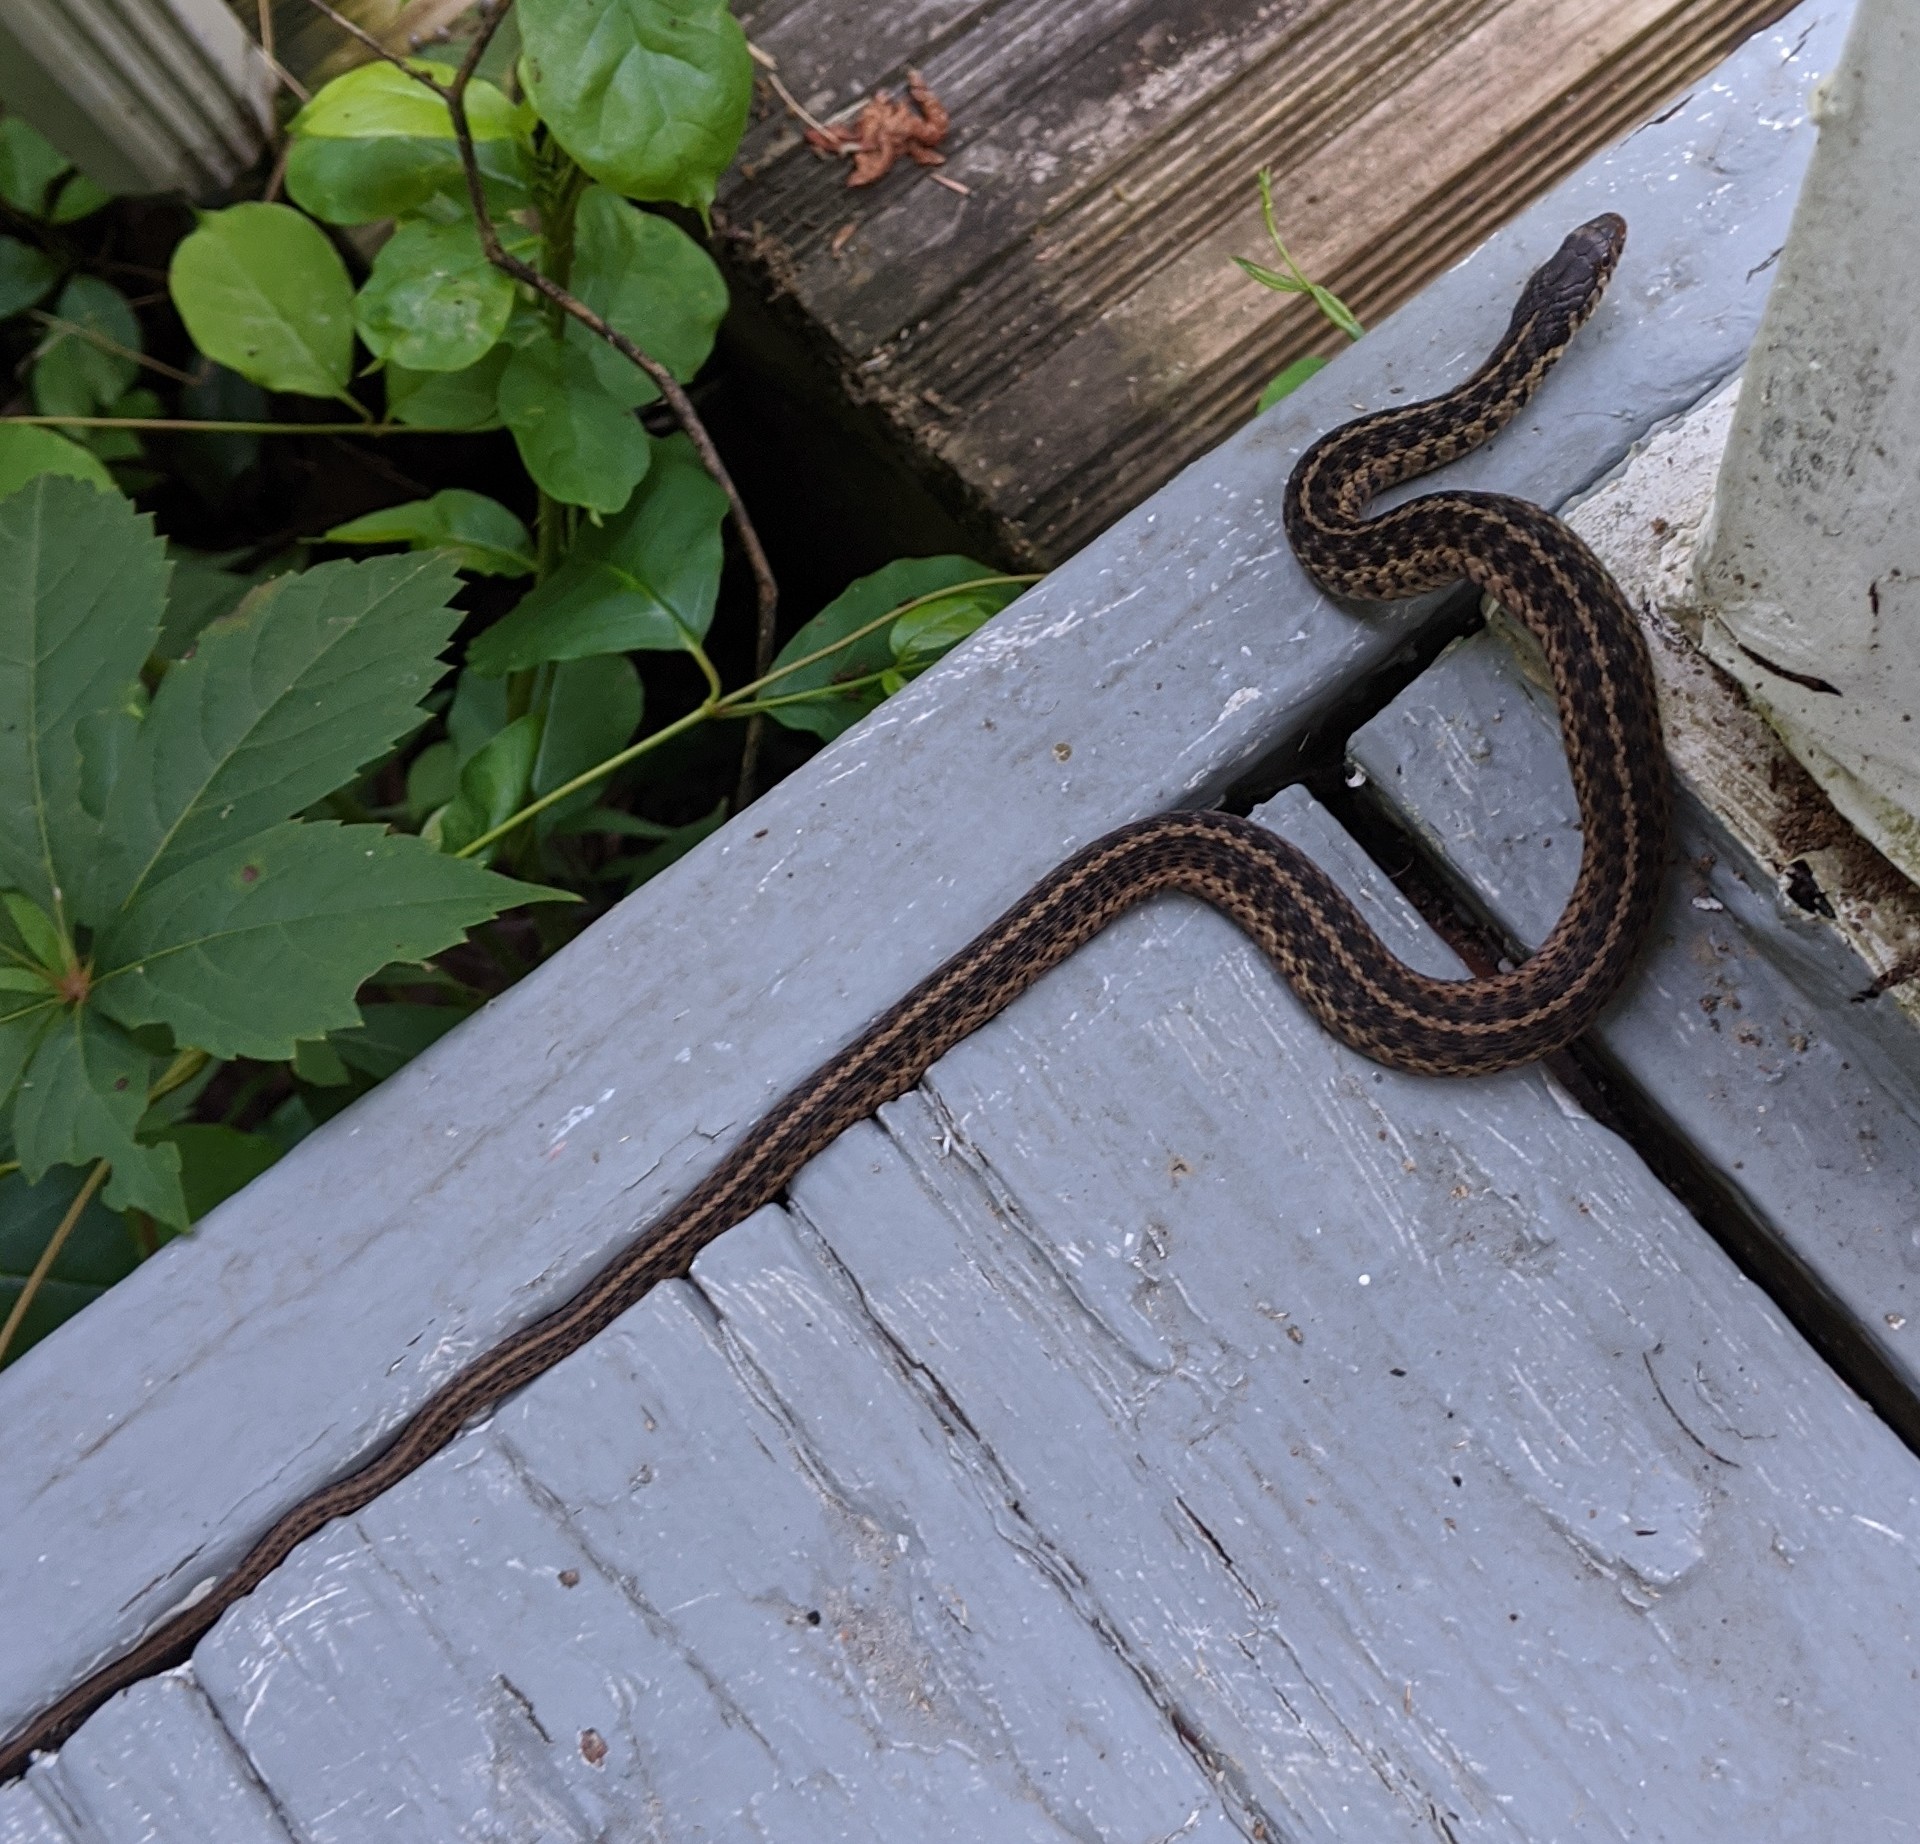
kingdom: Animalia
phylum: Chordata
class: Squamata
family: Colubridae
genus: Thamnophis
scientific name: Thamnophis sirtalis
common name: Common garter snake
